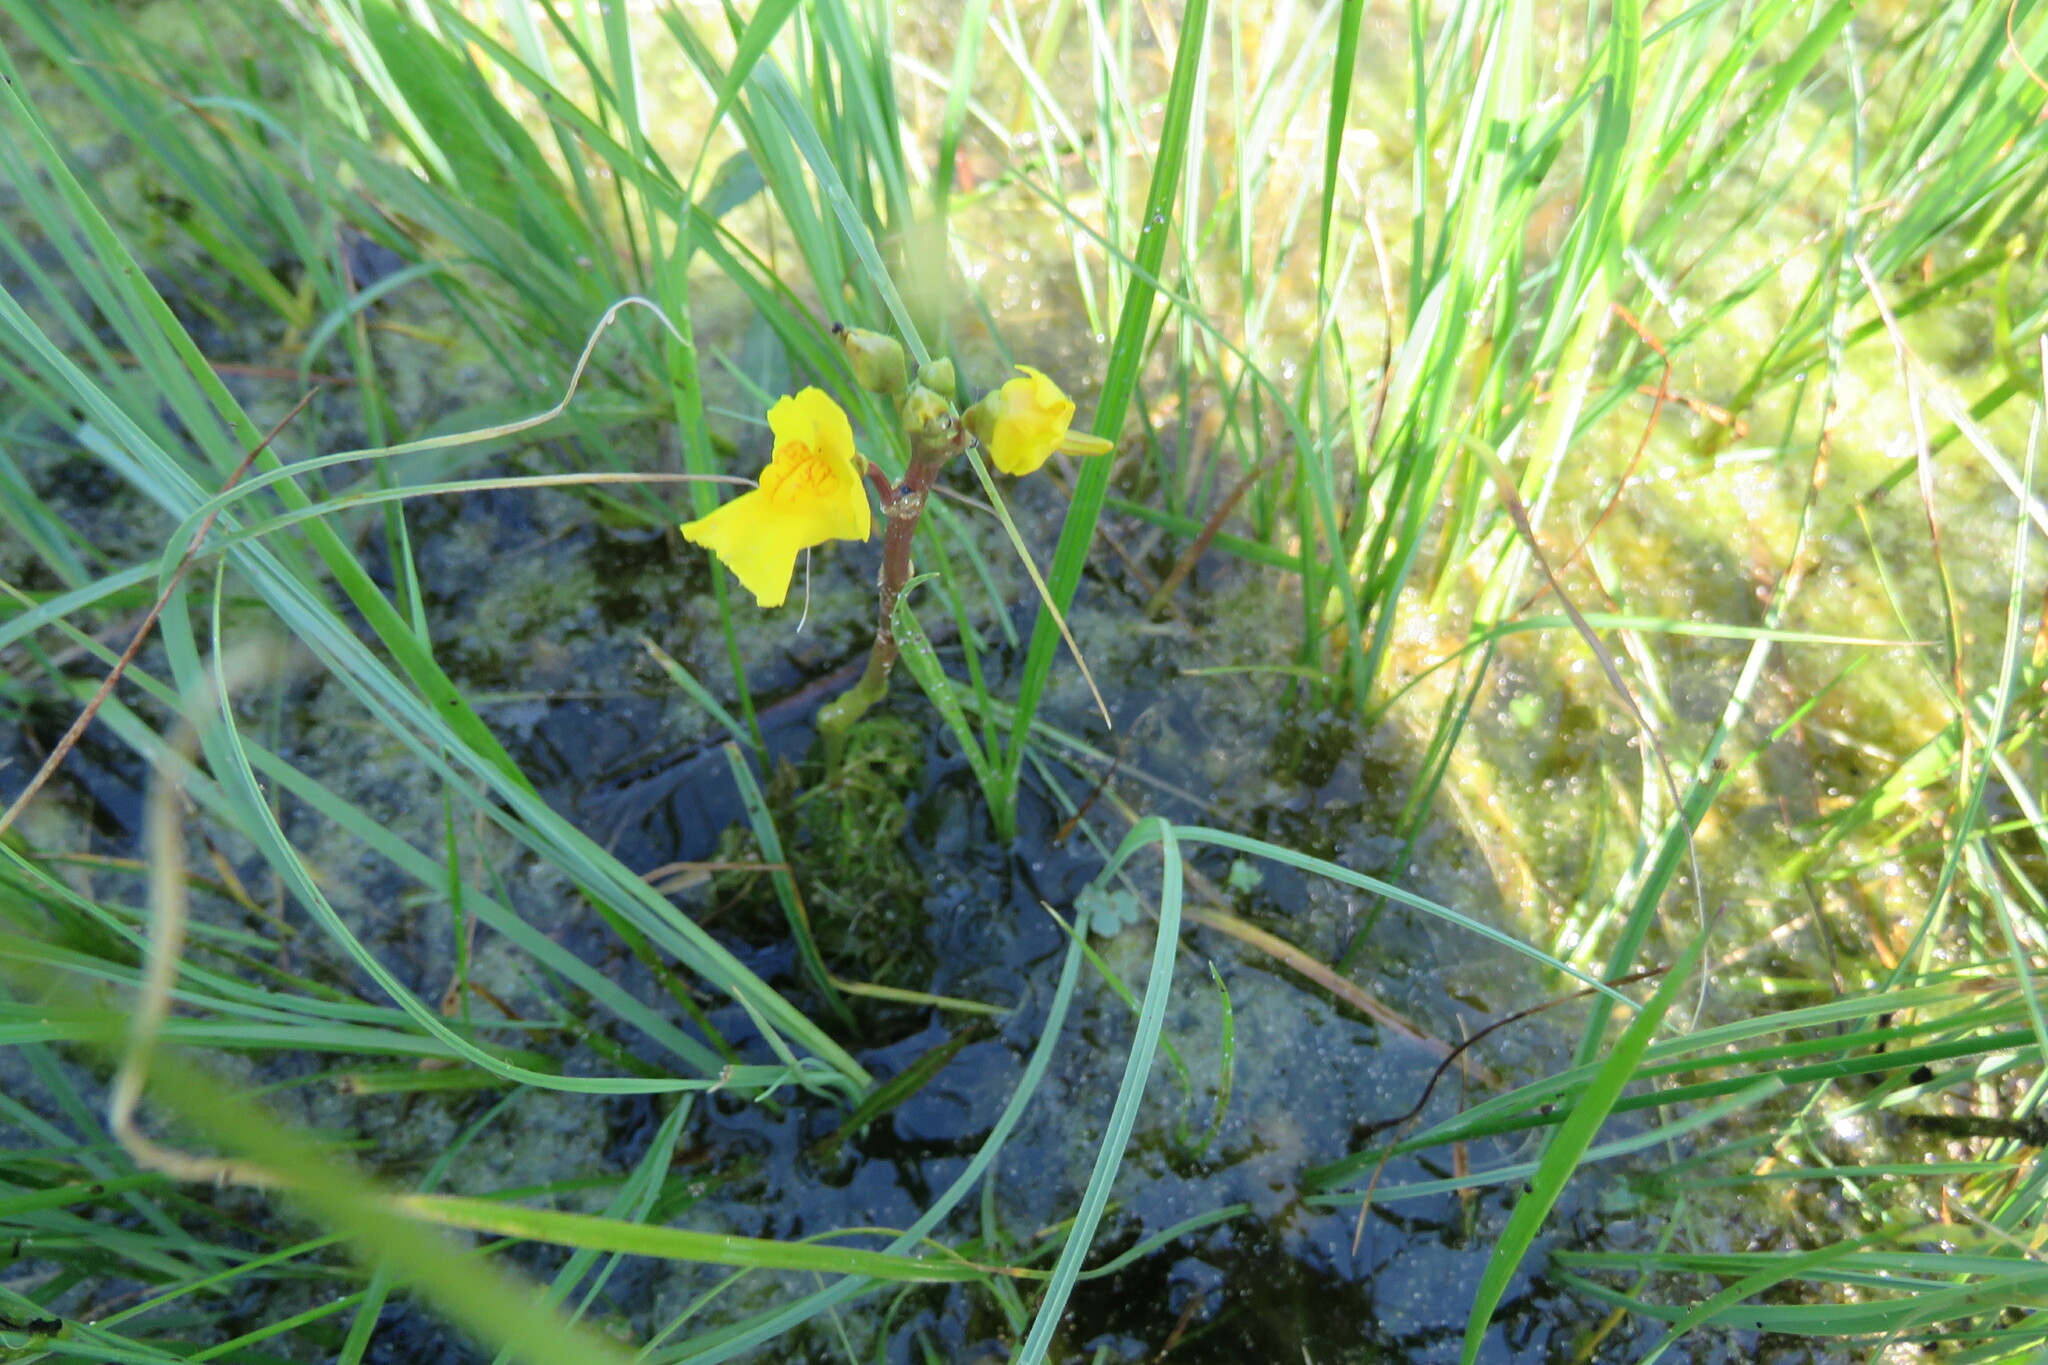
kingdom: Plantae
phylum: Tracheophyta
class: Magnoliopsida
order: Lamiales
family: Lentibulariaceae
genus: Utricularia
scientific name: Utricularia macrorhiza
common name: Common bladderwort
